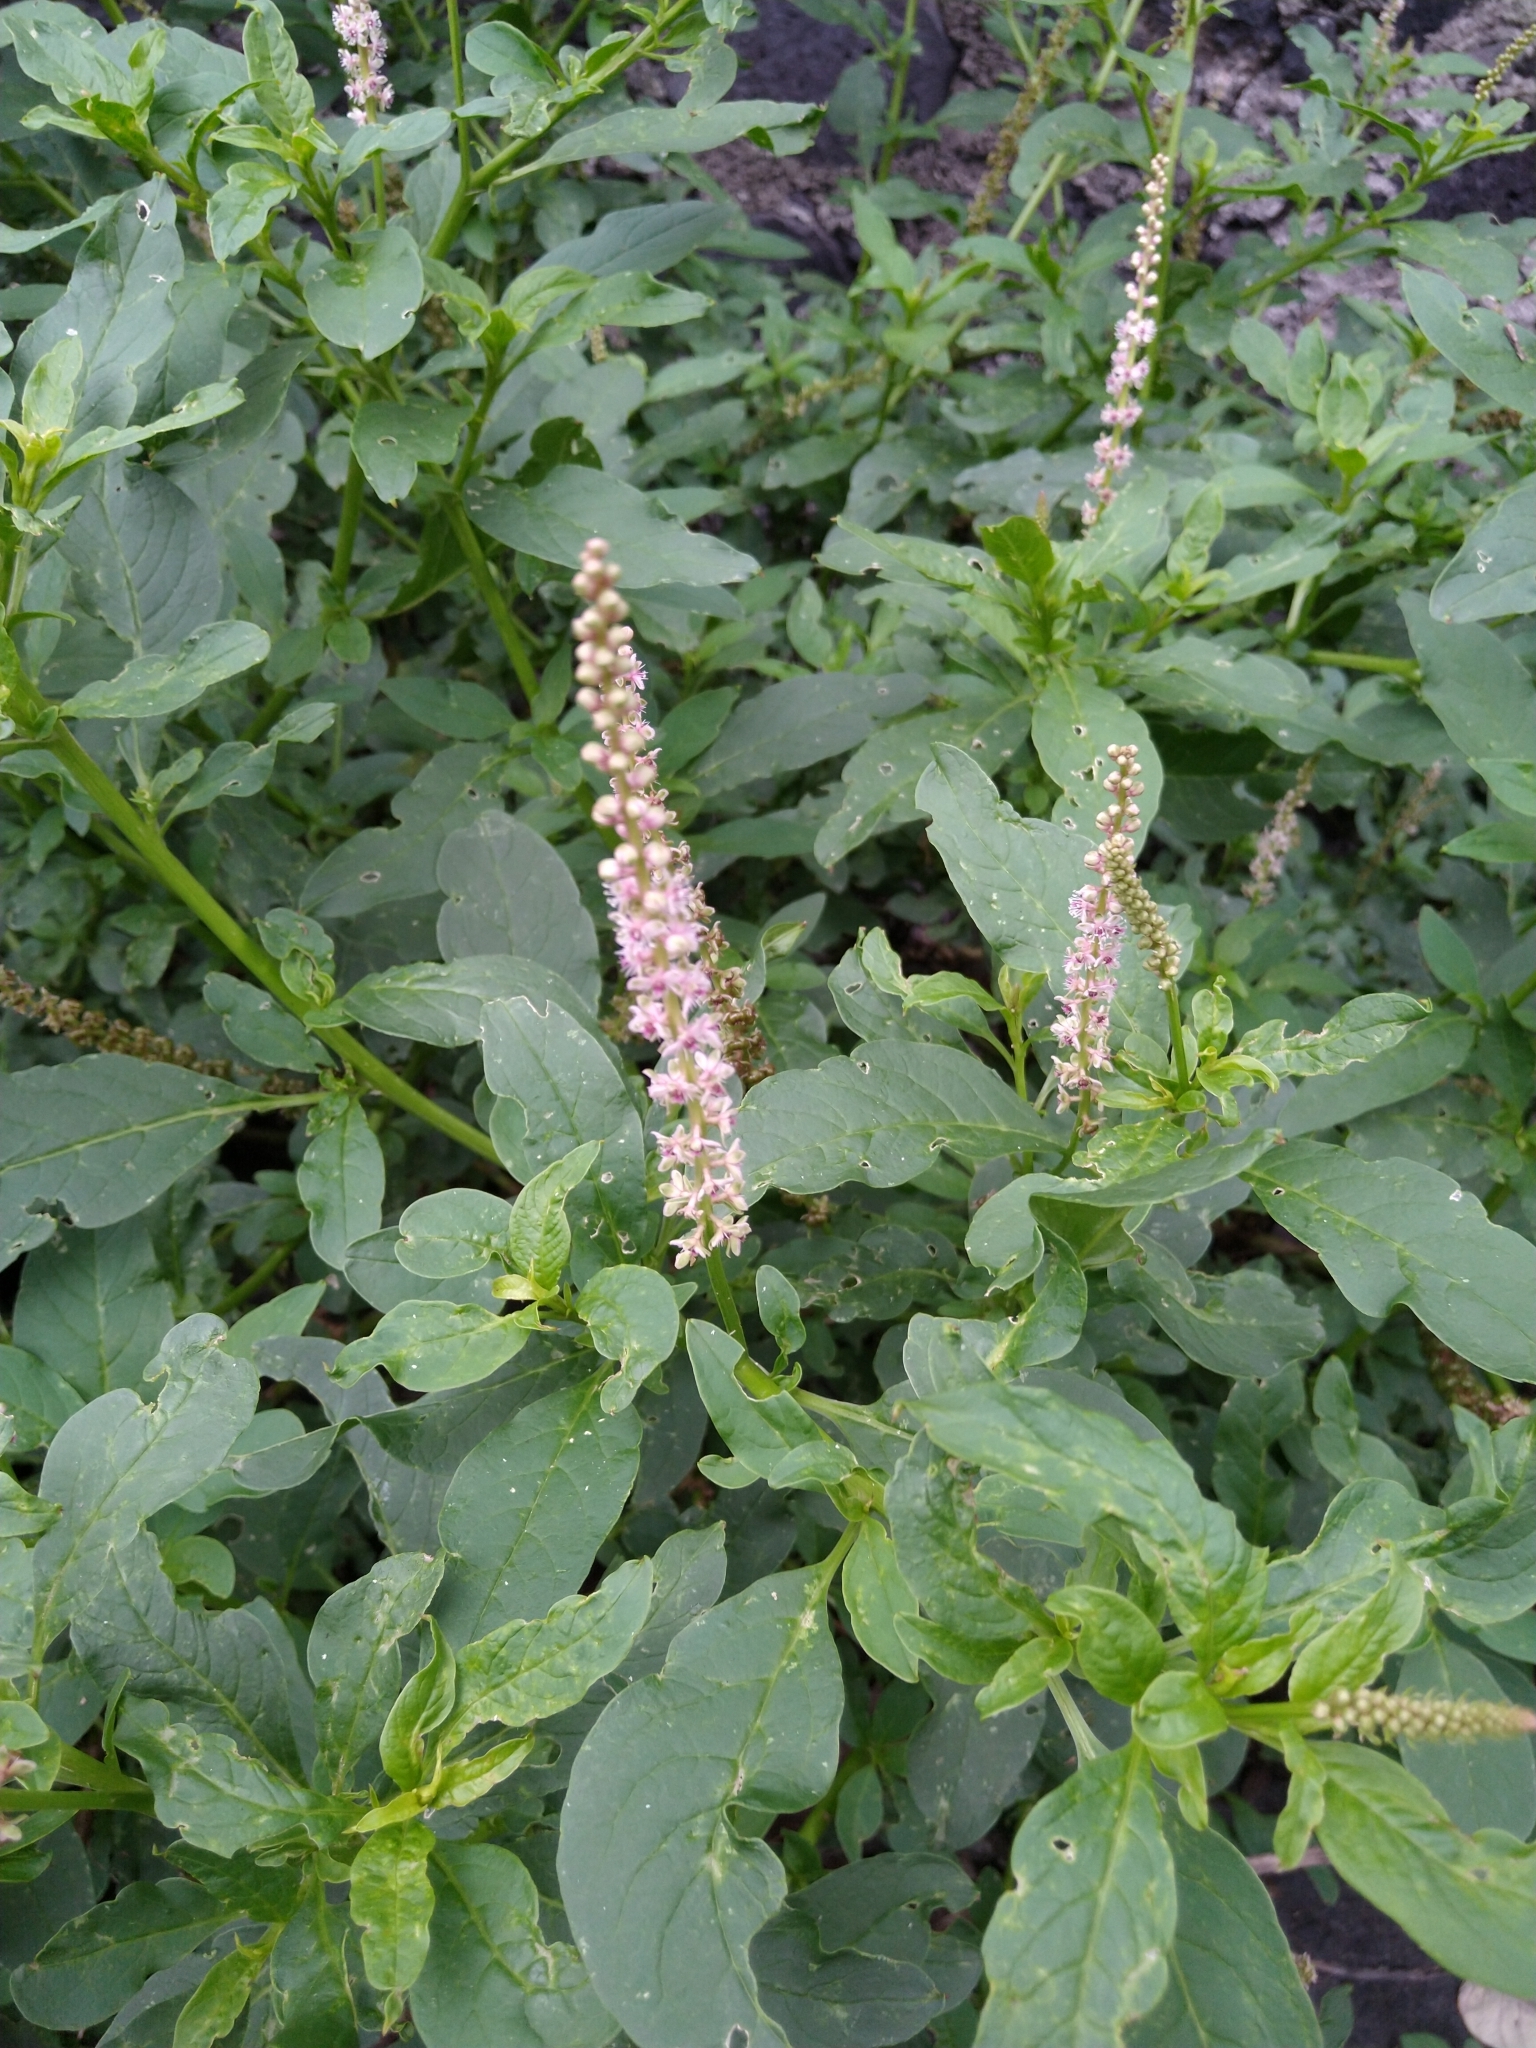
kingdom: Plantae
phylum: Tracheophyta
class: Magnoliopsida
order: Caryophyllales
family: Phytolaccaceae
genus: Phytolacca
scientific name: Phytolacca icosandra
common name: Button pokeweed
